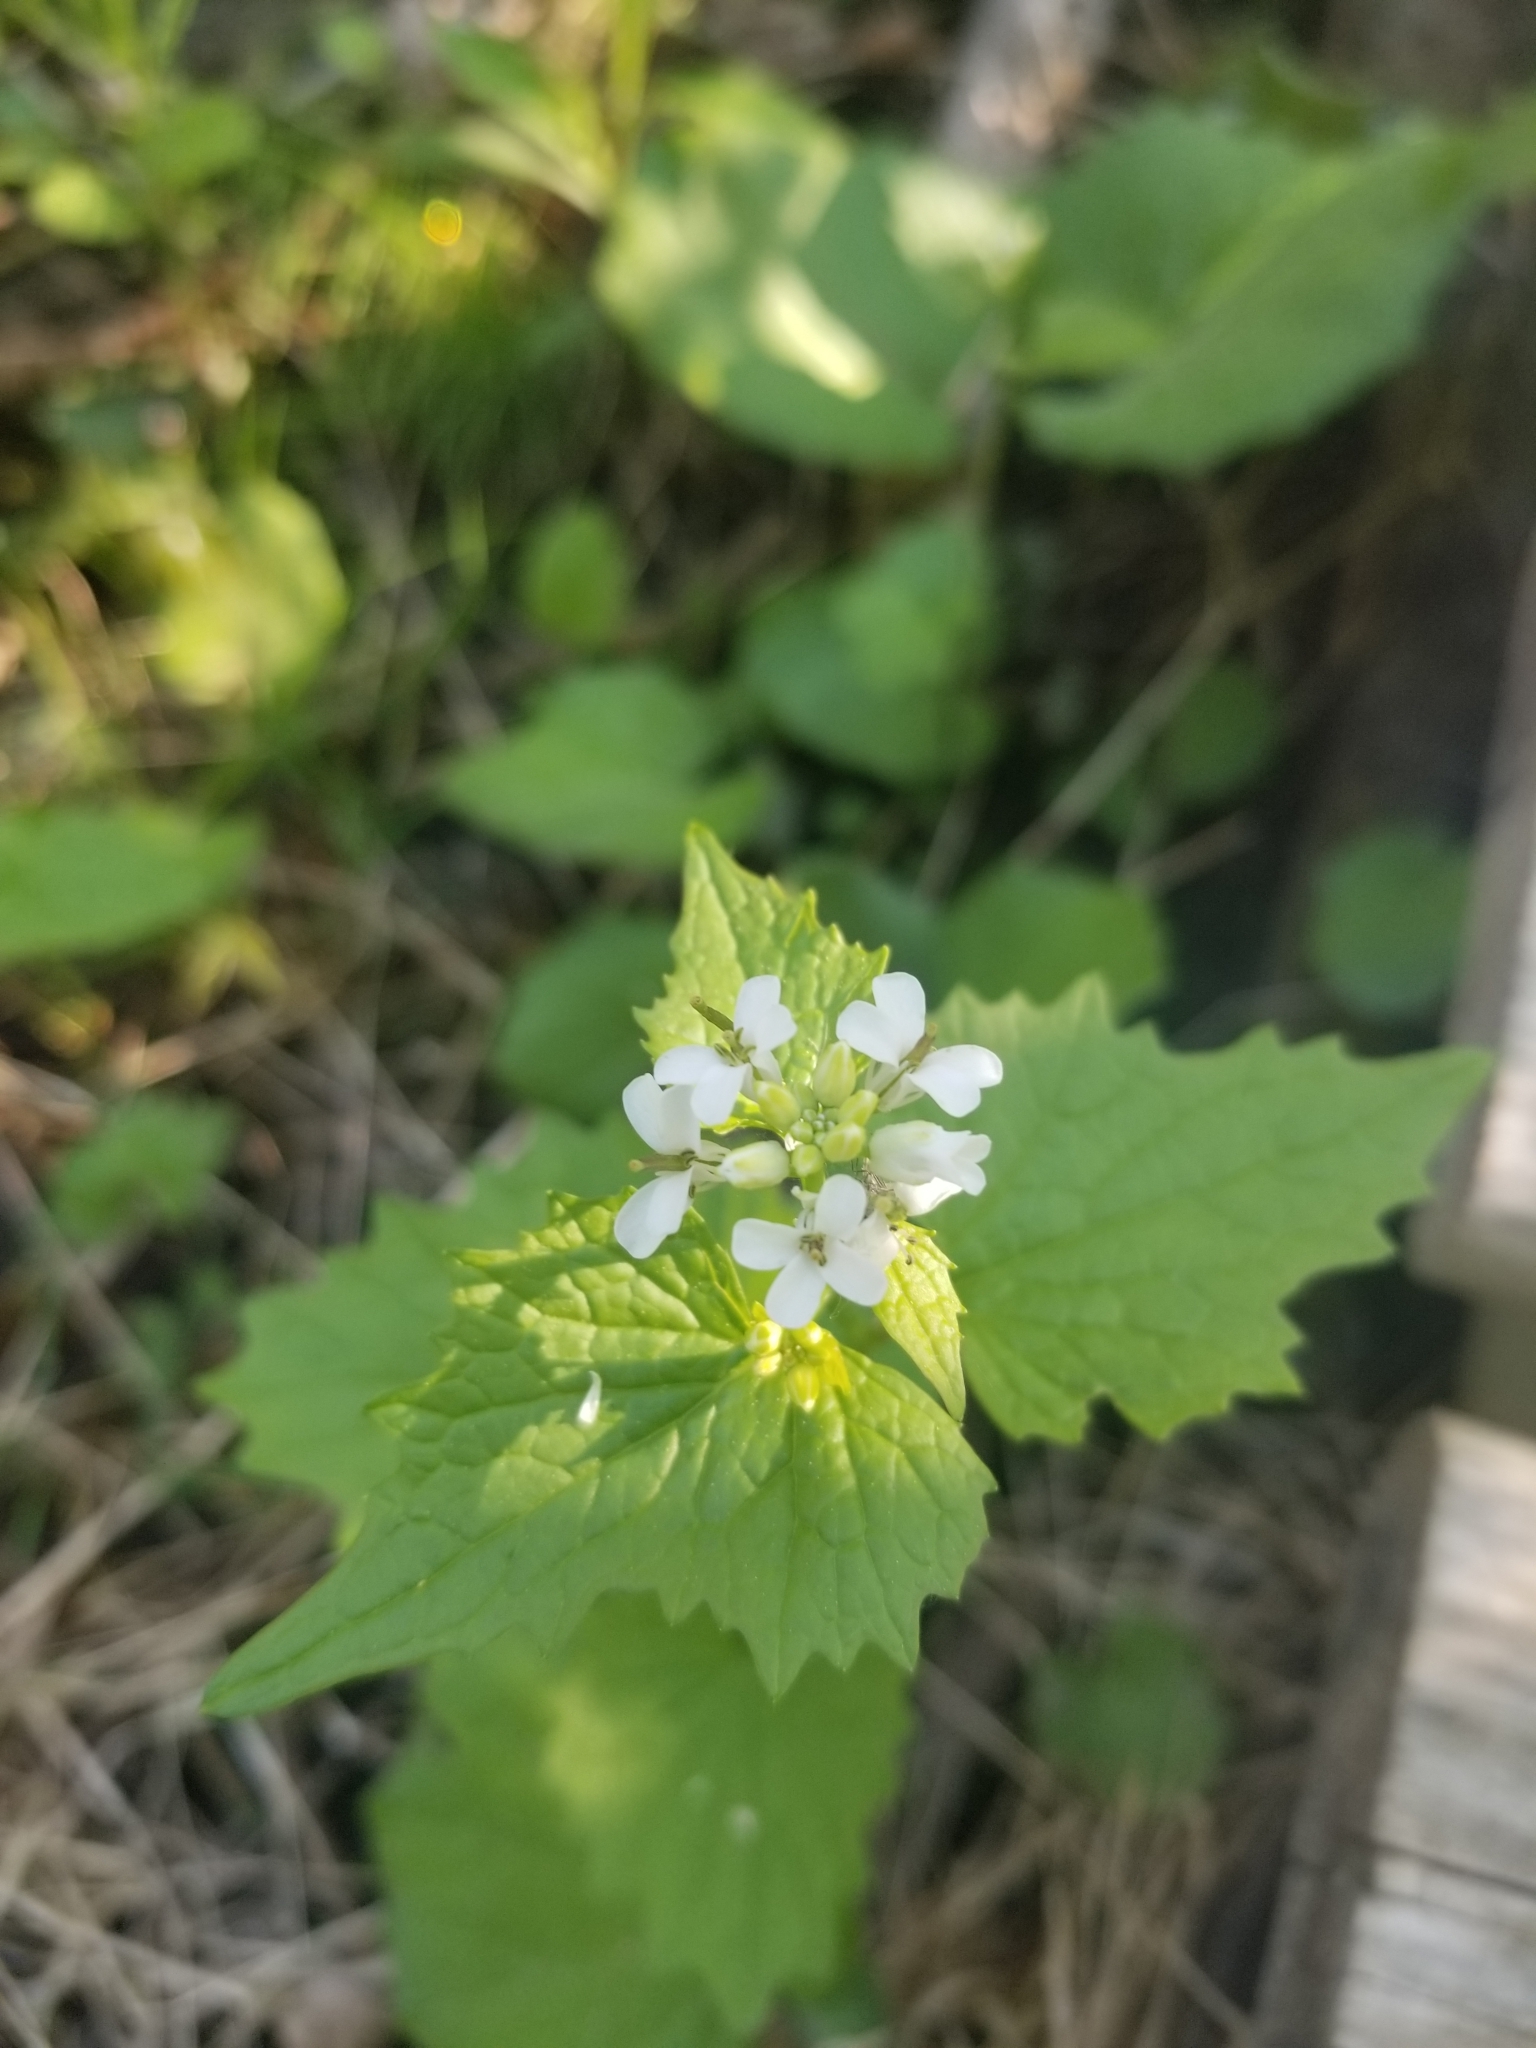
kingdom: Plantae
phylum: Tracheophyta
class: Magnoliopsida
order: Brassicales
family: Brassicaceae
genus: Alliaria
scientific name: Alliaria petiolata
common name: Garlic mustard
